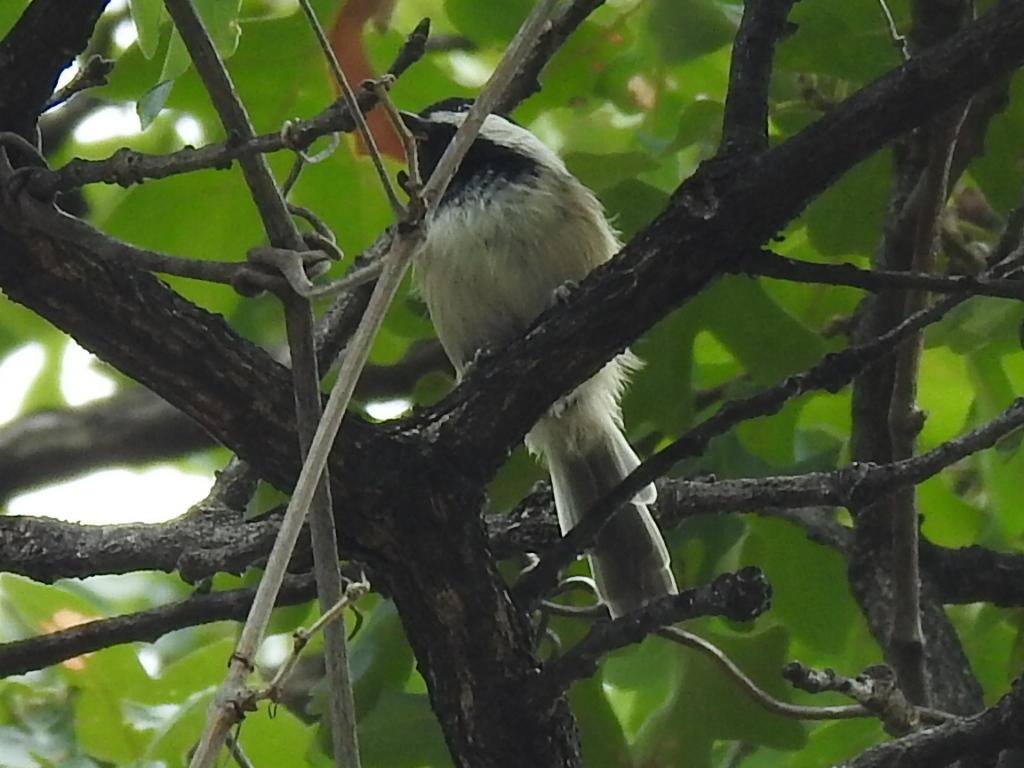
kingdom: Animalia
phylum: Chordata
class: Aves
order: Passeriformes
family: Paridae
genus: Poecile
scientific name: Poecile carolinensis
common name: Carolina chickadee
